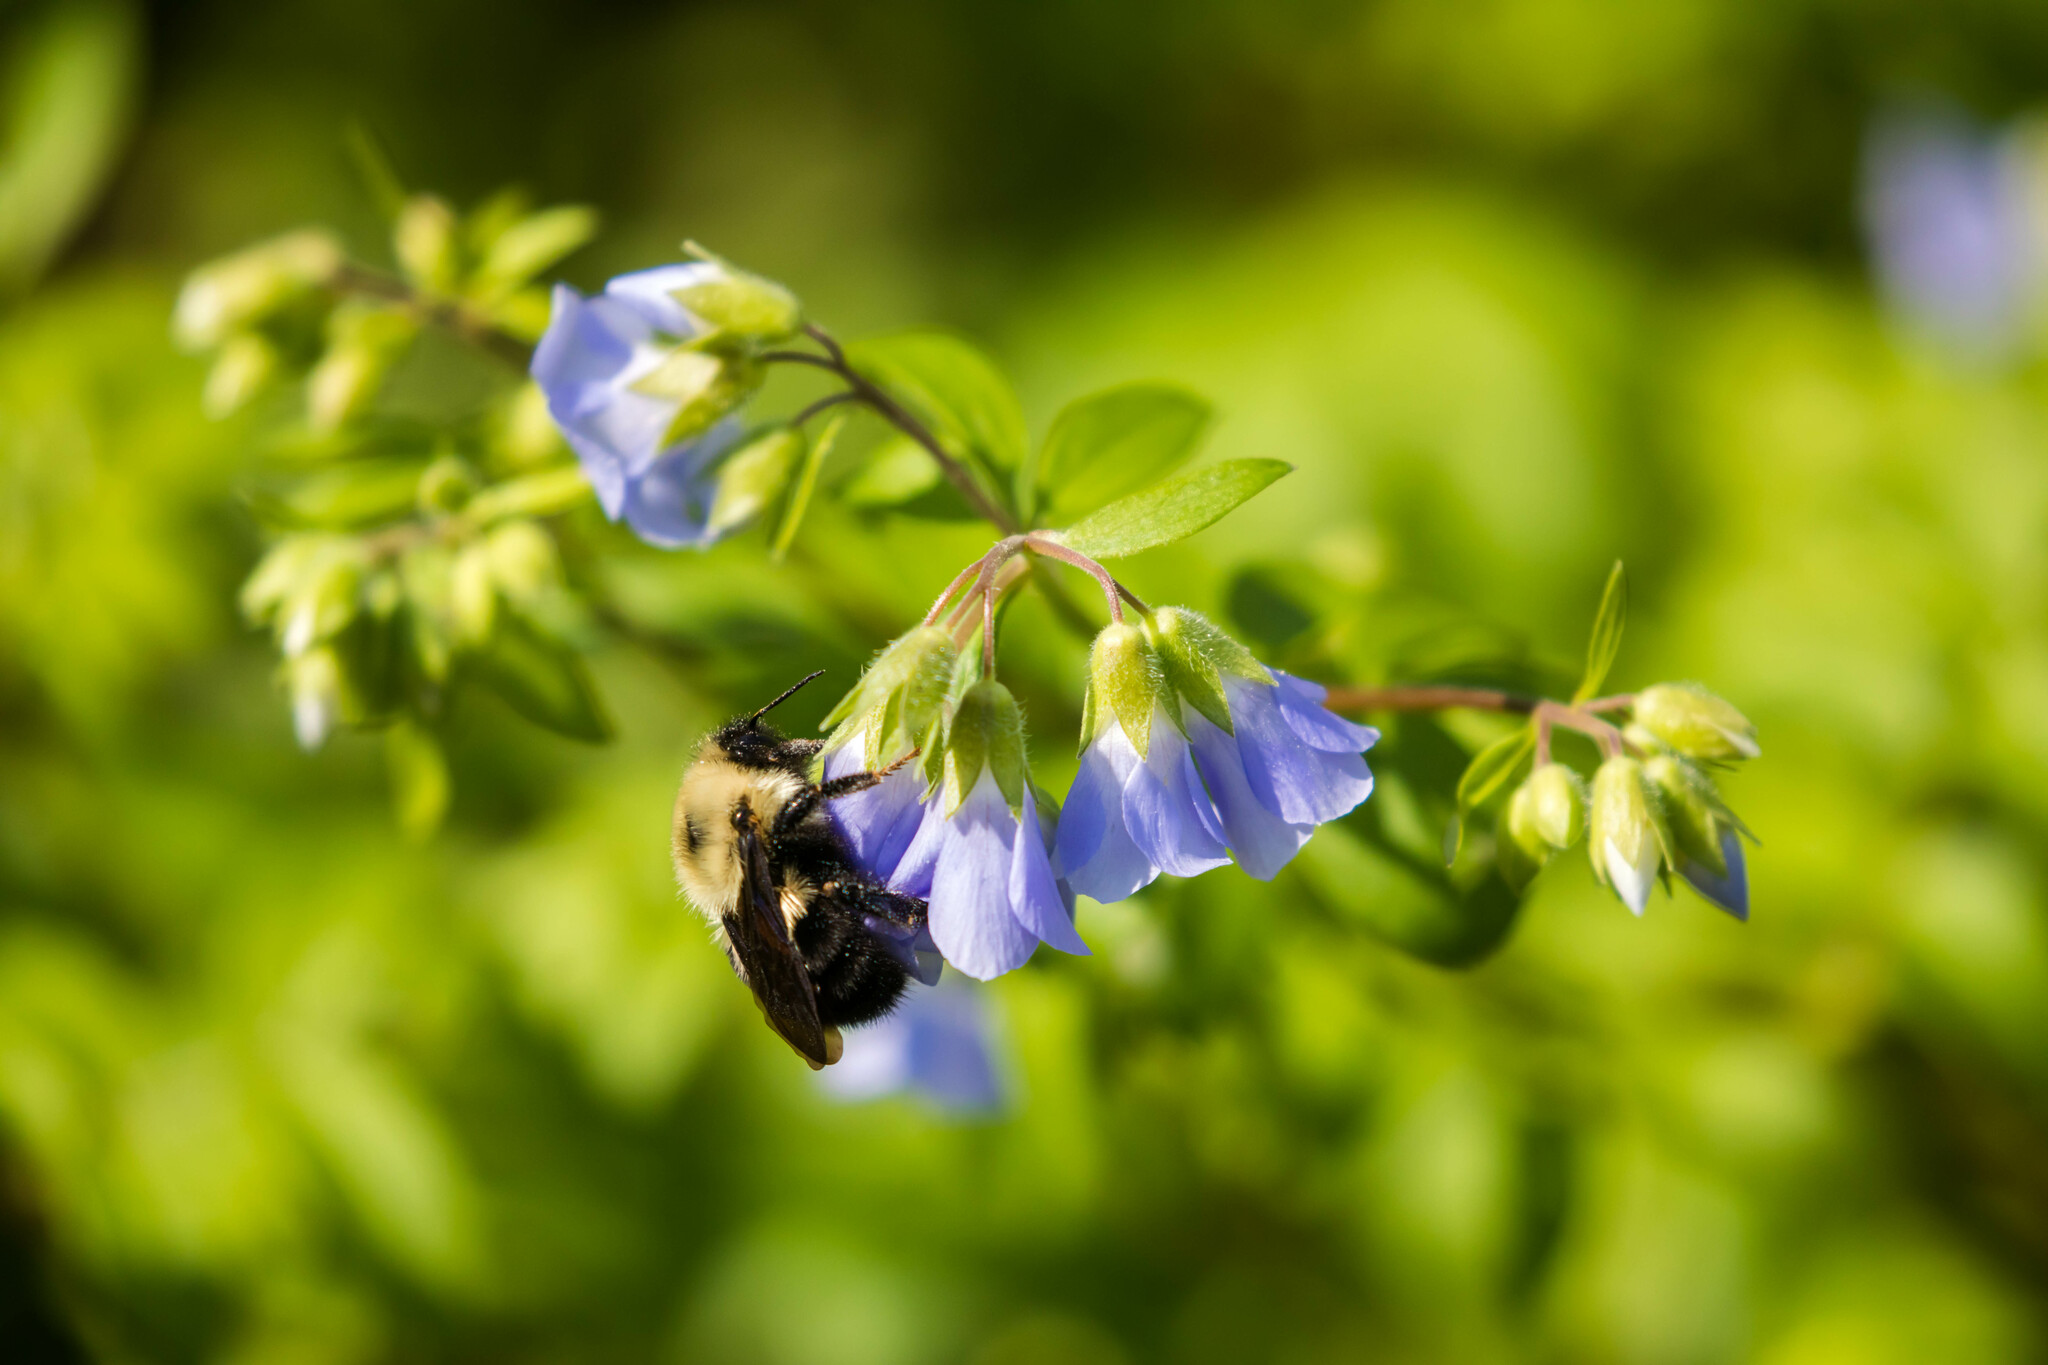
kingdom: Animalia
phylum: Arthropoda
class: Insecta
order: Hymenoptera
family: Apidae
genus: Bombus
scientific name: Bombus bimaculatus
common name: Two-spotted bumble bee
